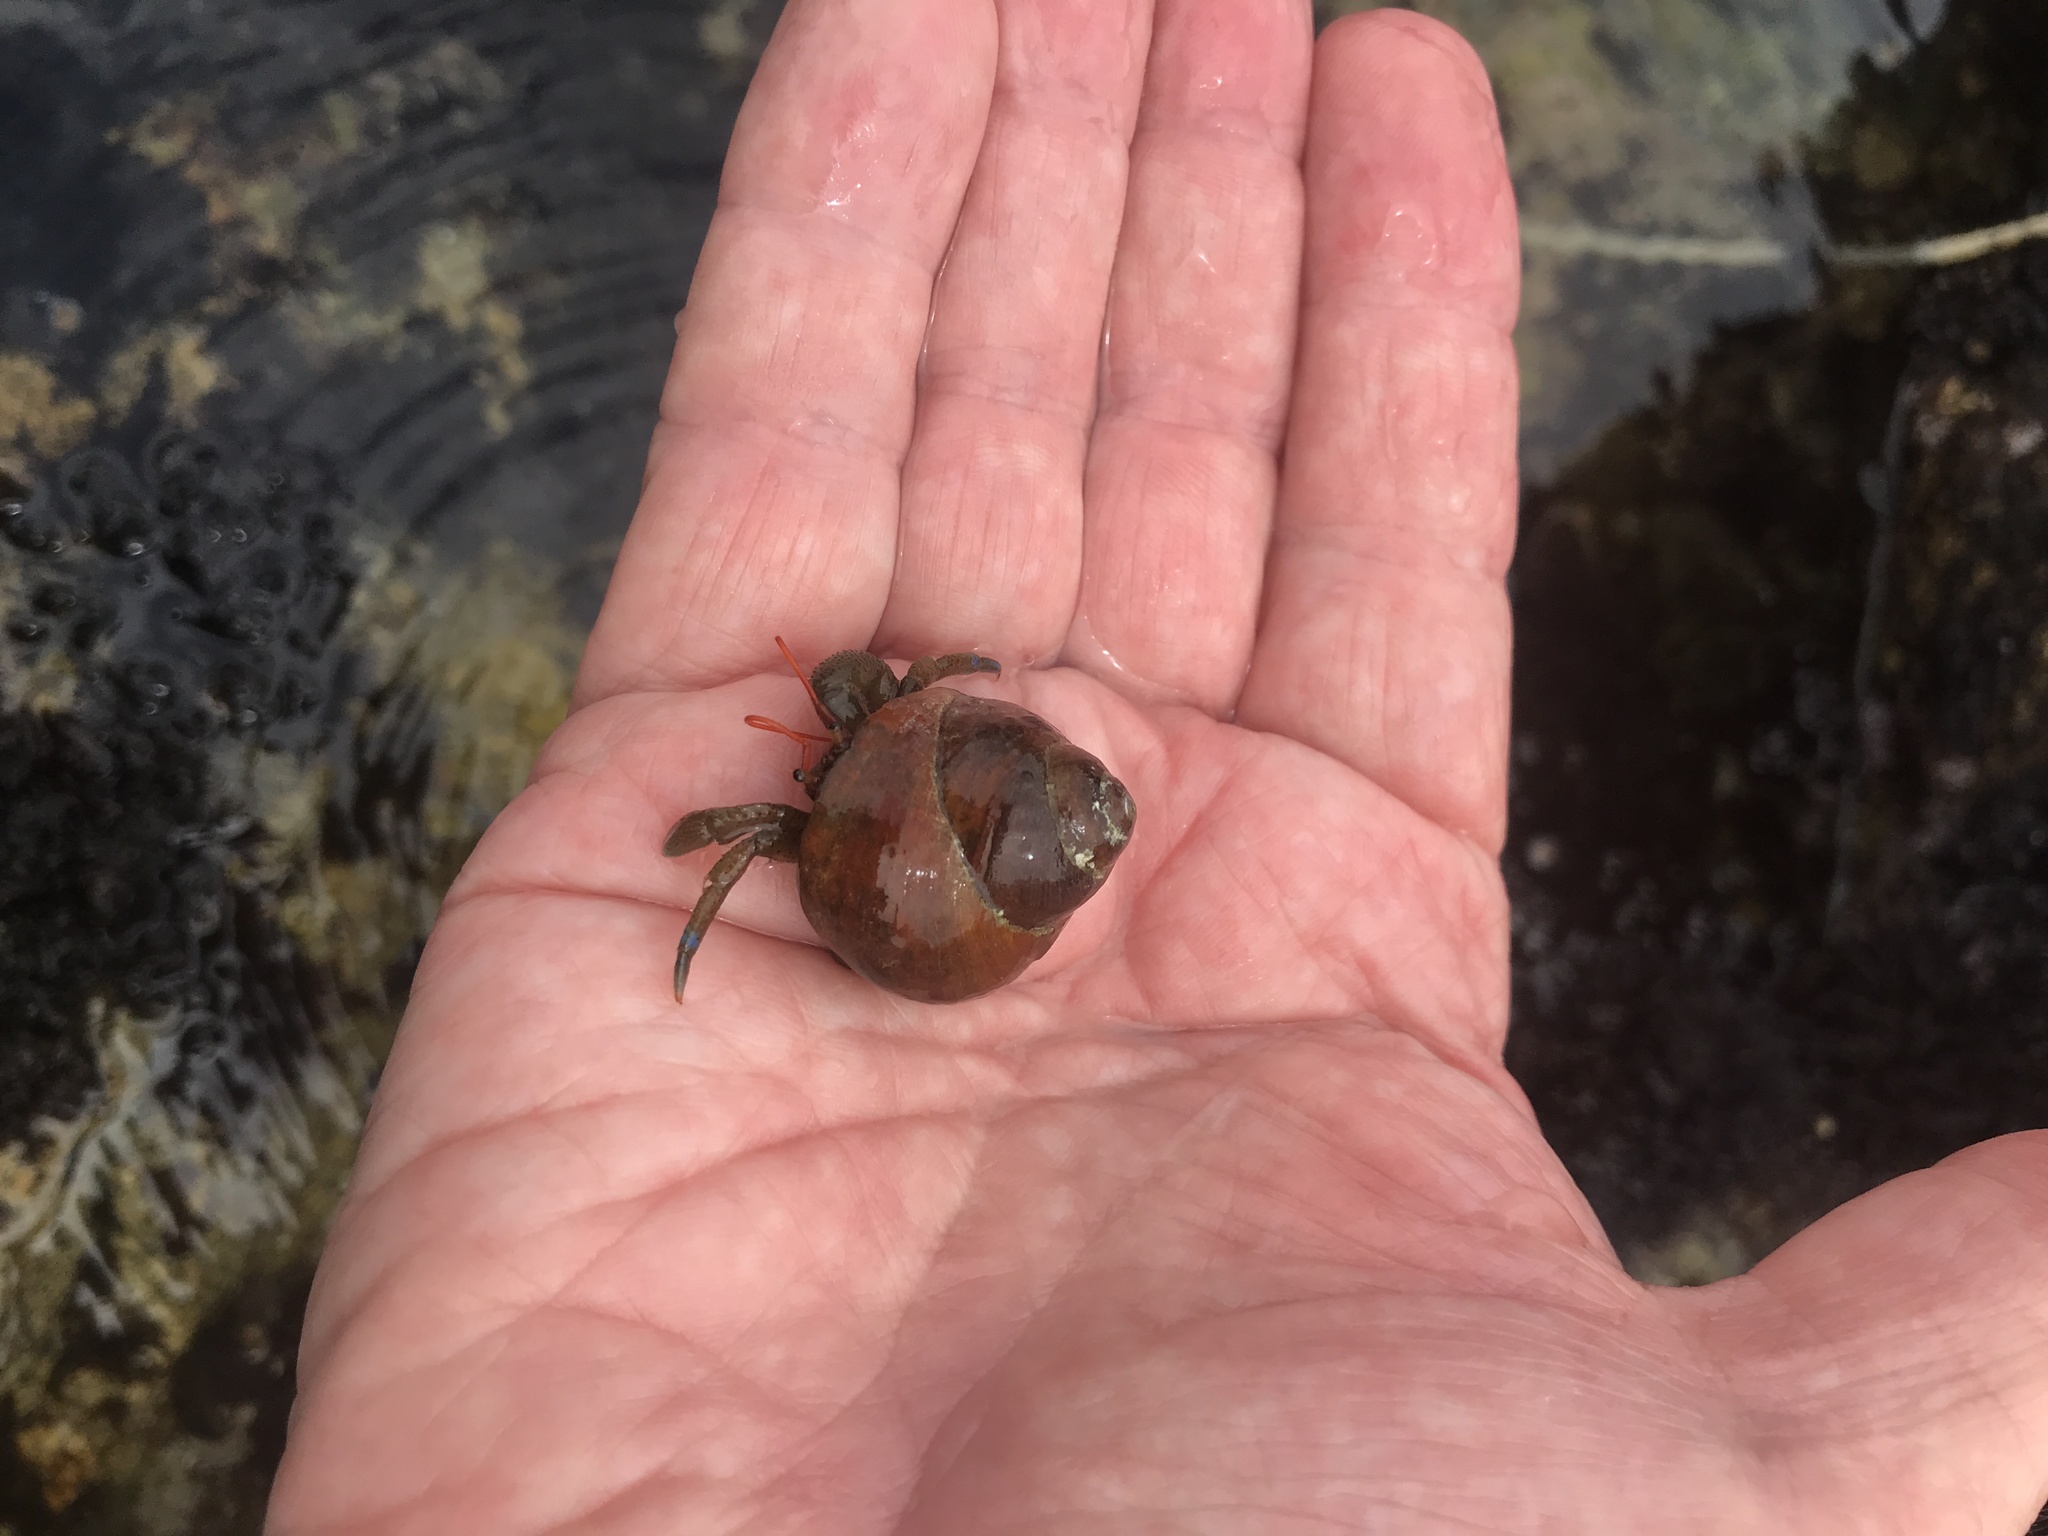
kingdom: Animalia
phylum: Arthropoda
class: Malacostraca
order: Decapoda
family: Paguridae
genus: Pagurus
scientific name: Pagurus samuelis
